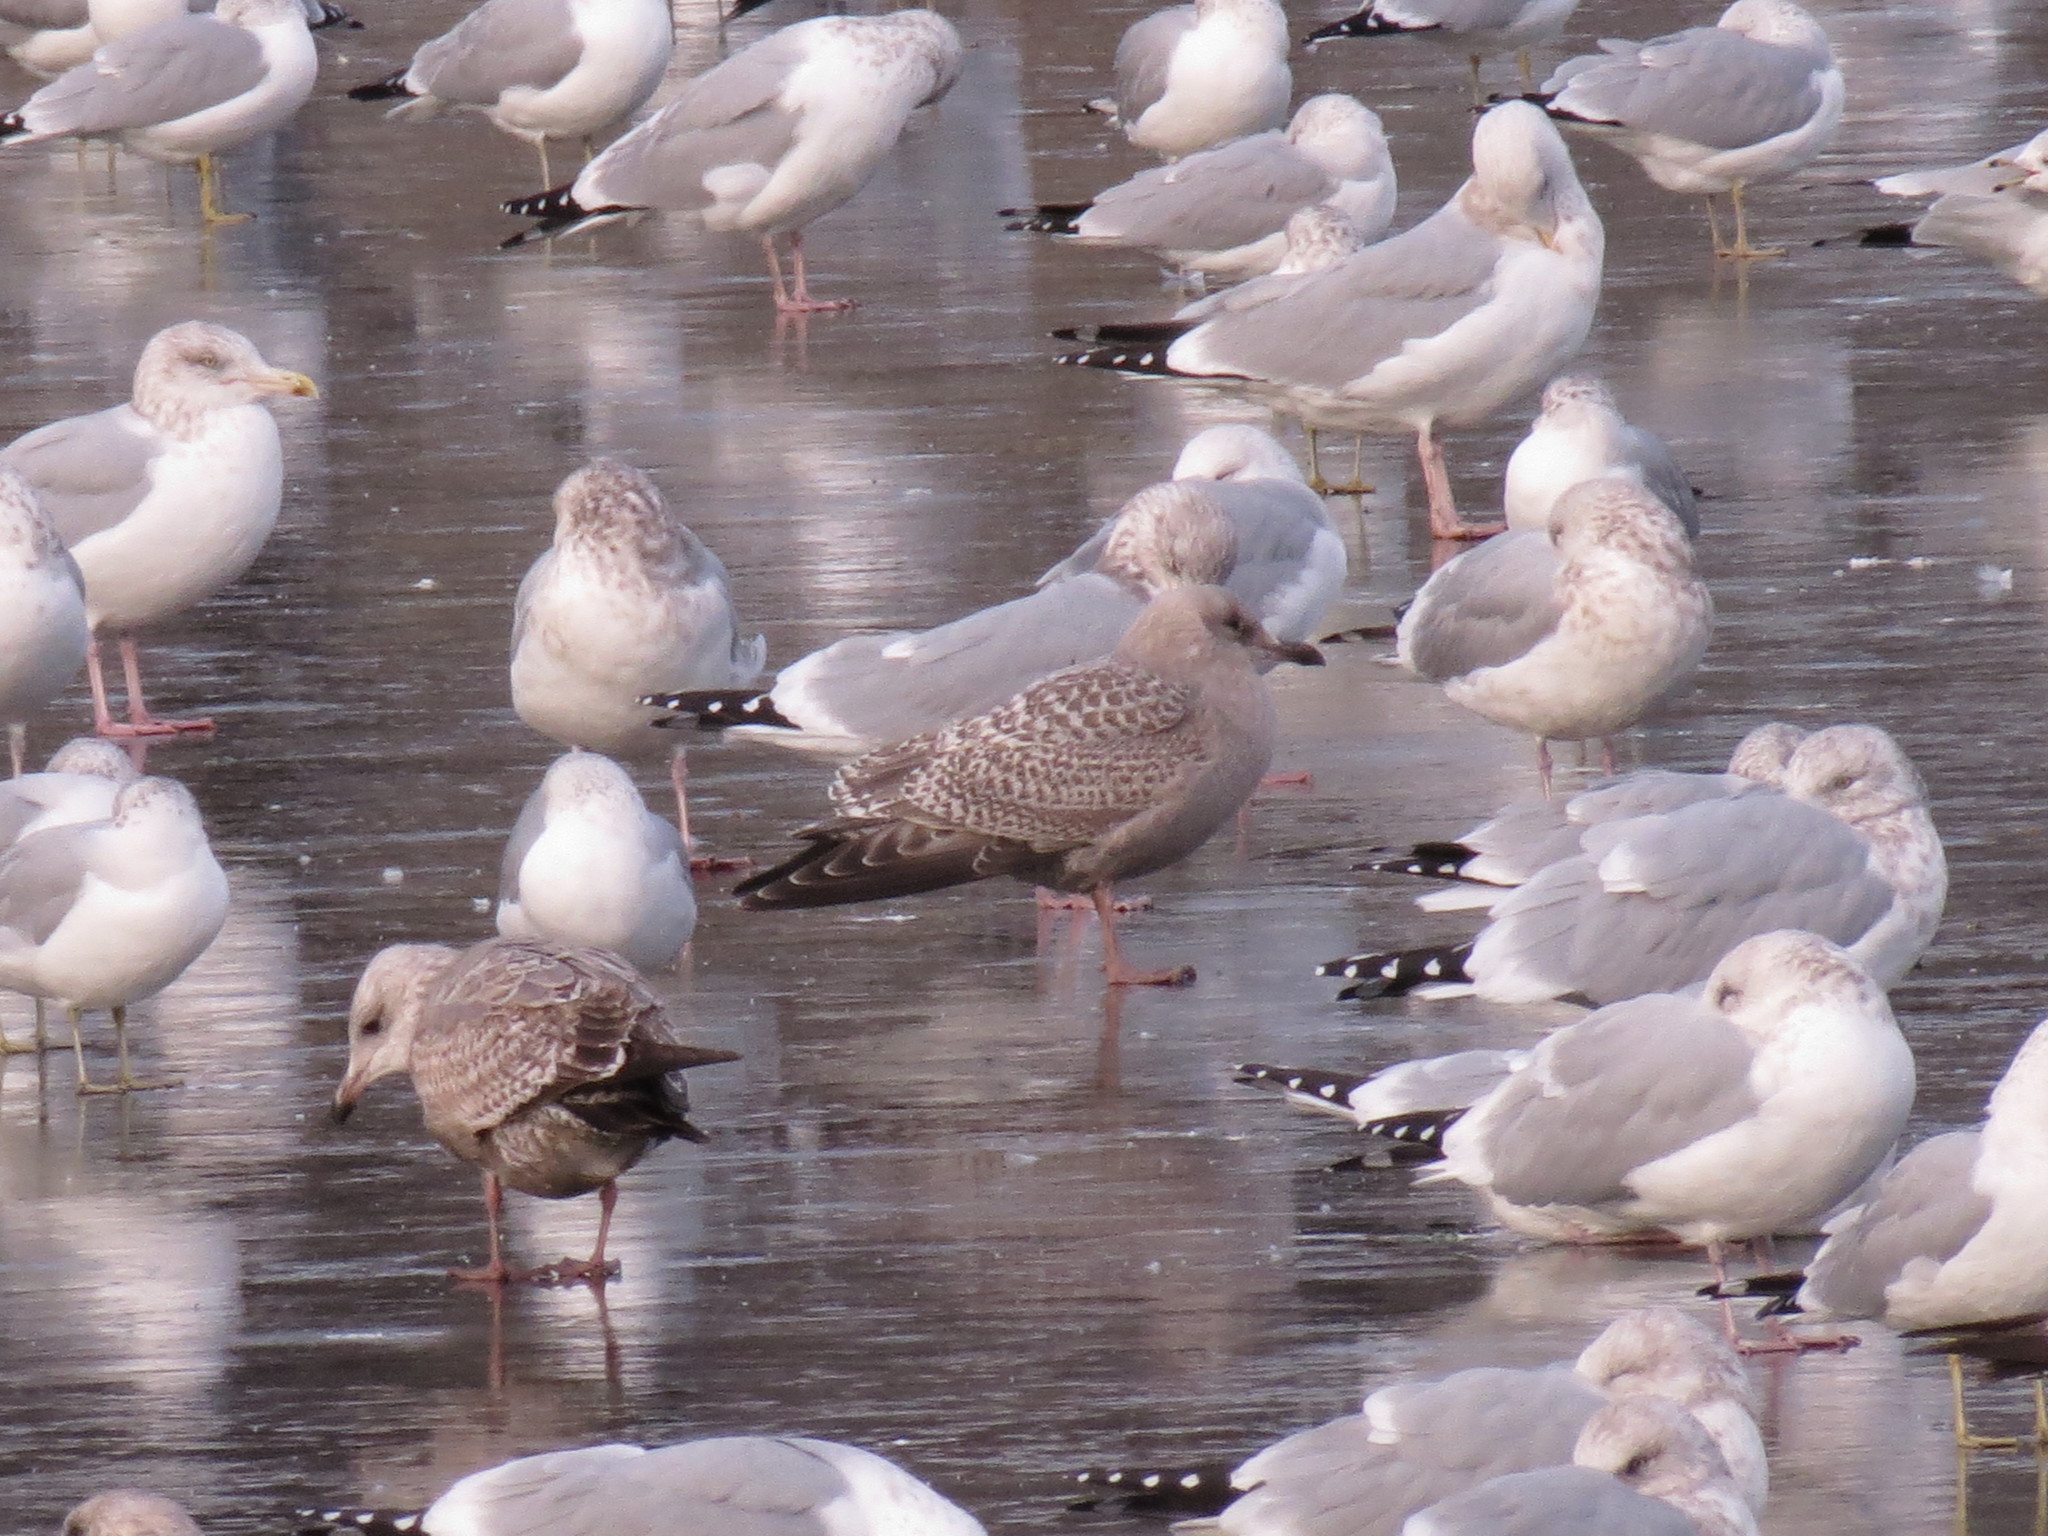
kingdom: Animalia
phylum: Chordata
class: Aves
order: Charadriiformes
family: Laridae
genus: Larus
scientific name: Larus glaucoides
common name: Iceland gull
